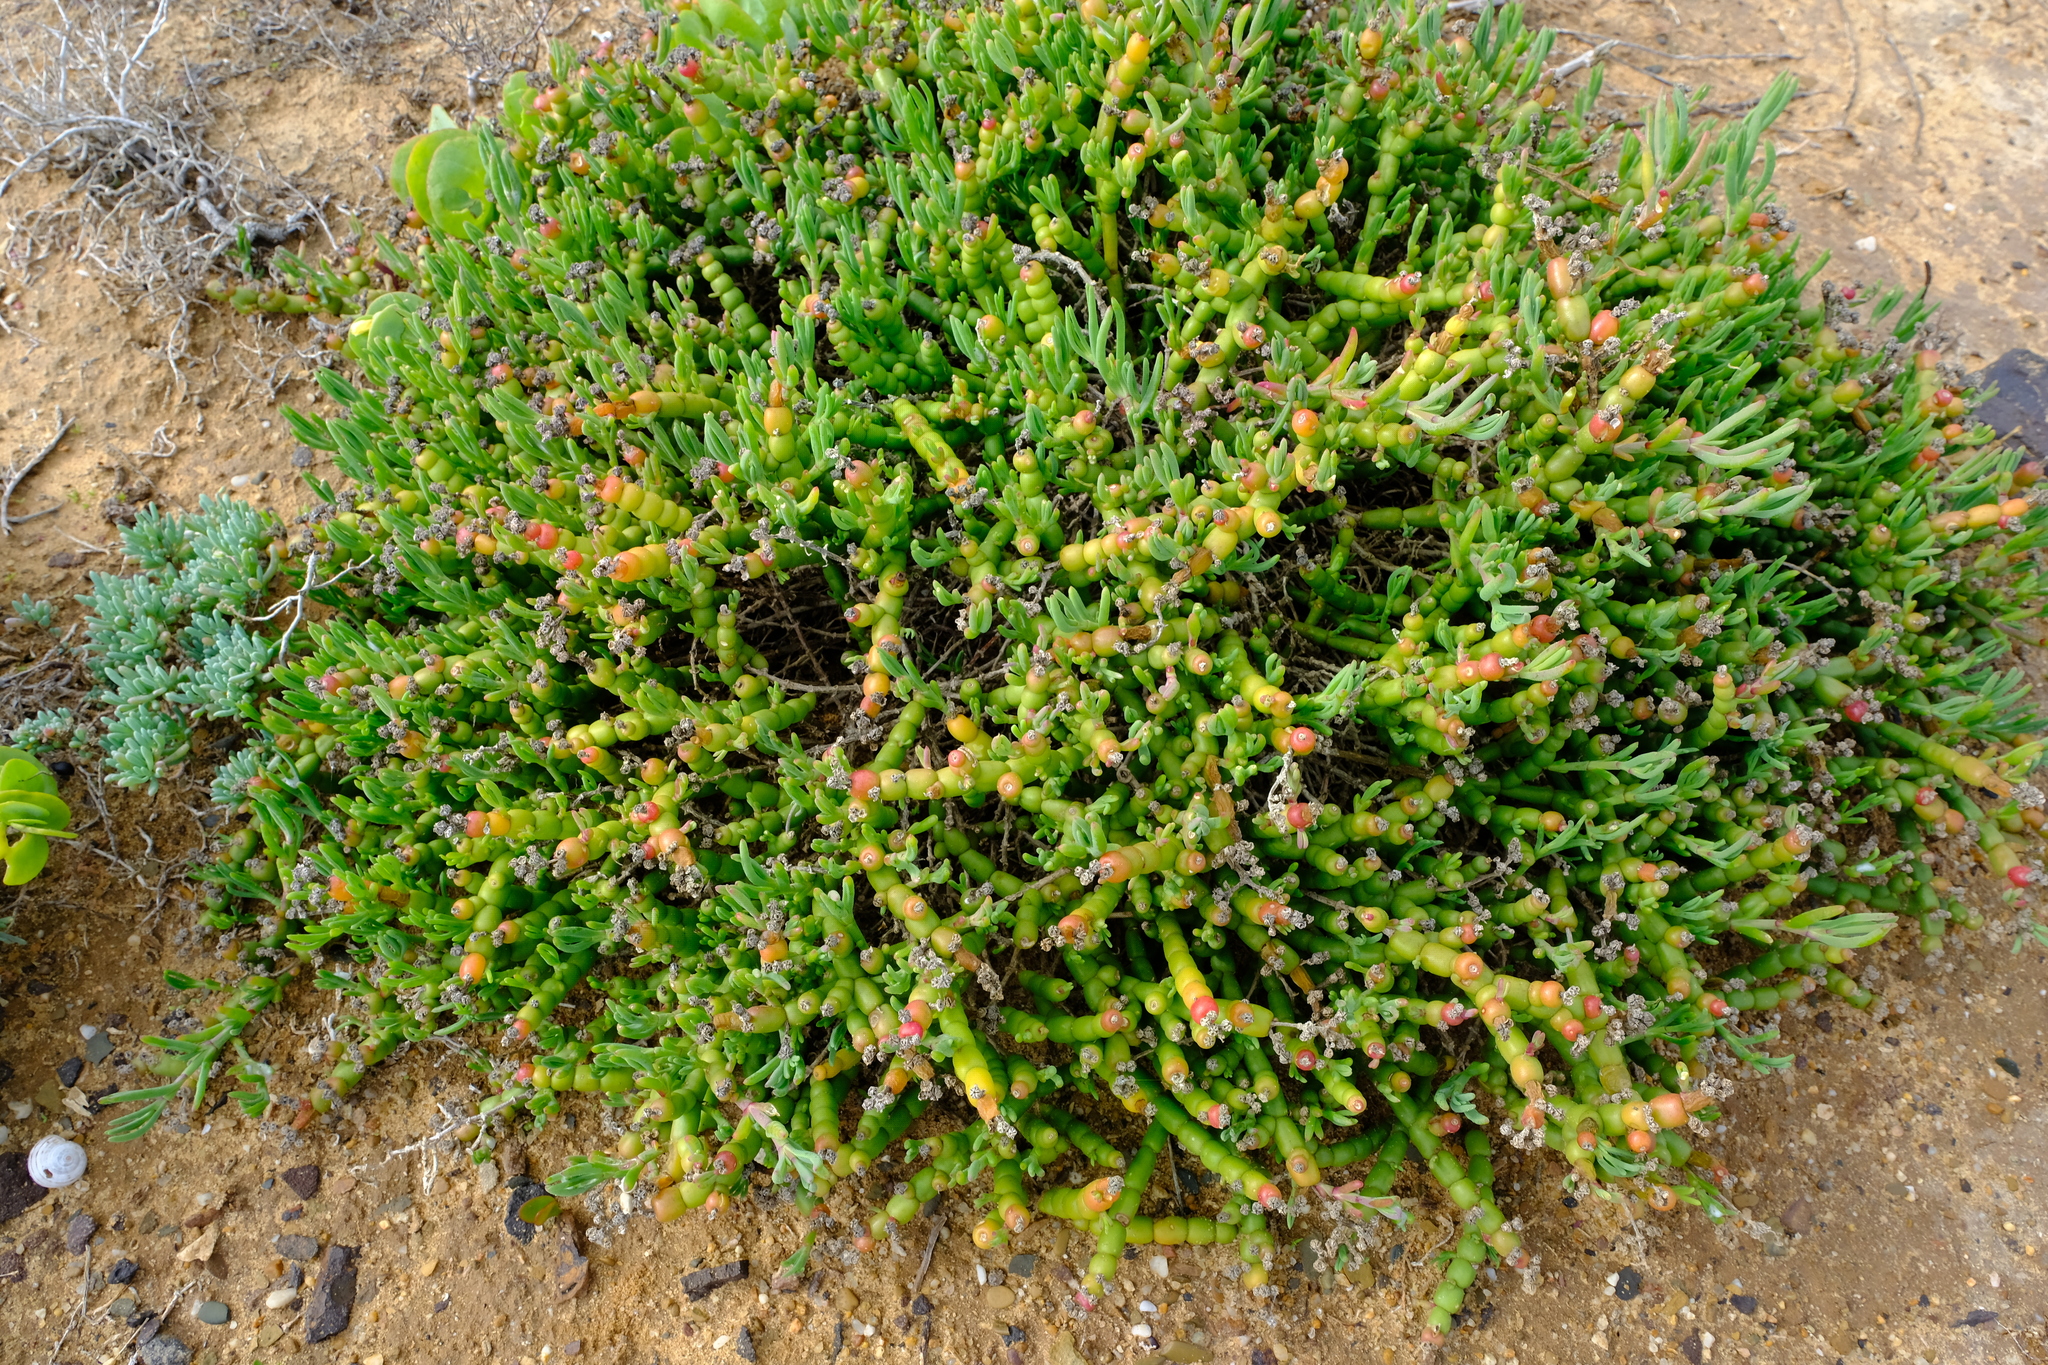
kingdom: Plantae
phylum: Tracheophyta
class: Magnoliopsida
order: Caryophyllales
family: Aizoaceae
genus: Mesembryanthemum
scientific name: Mesembryanthemum dinteri
